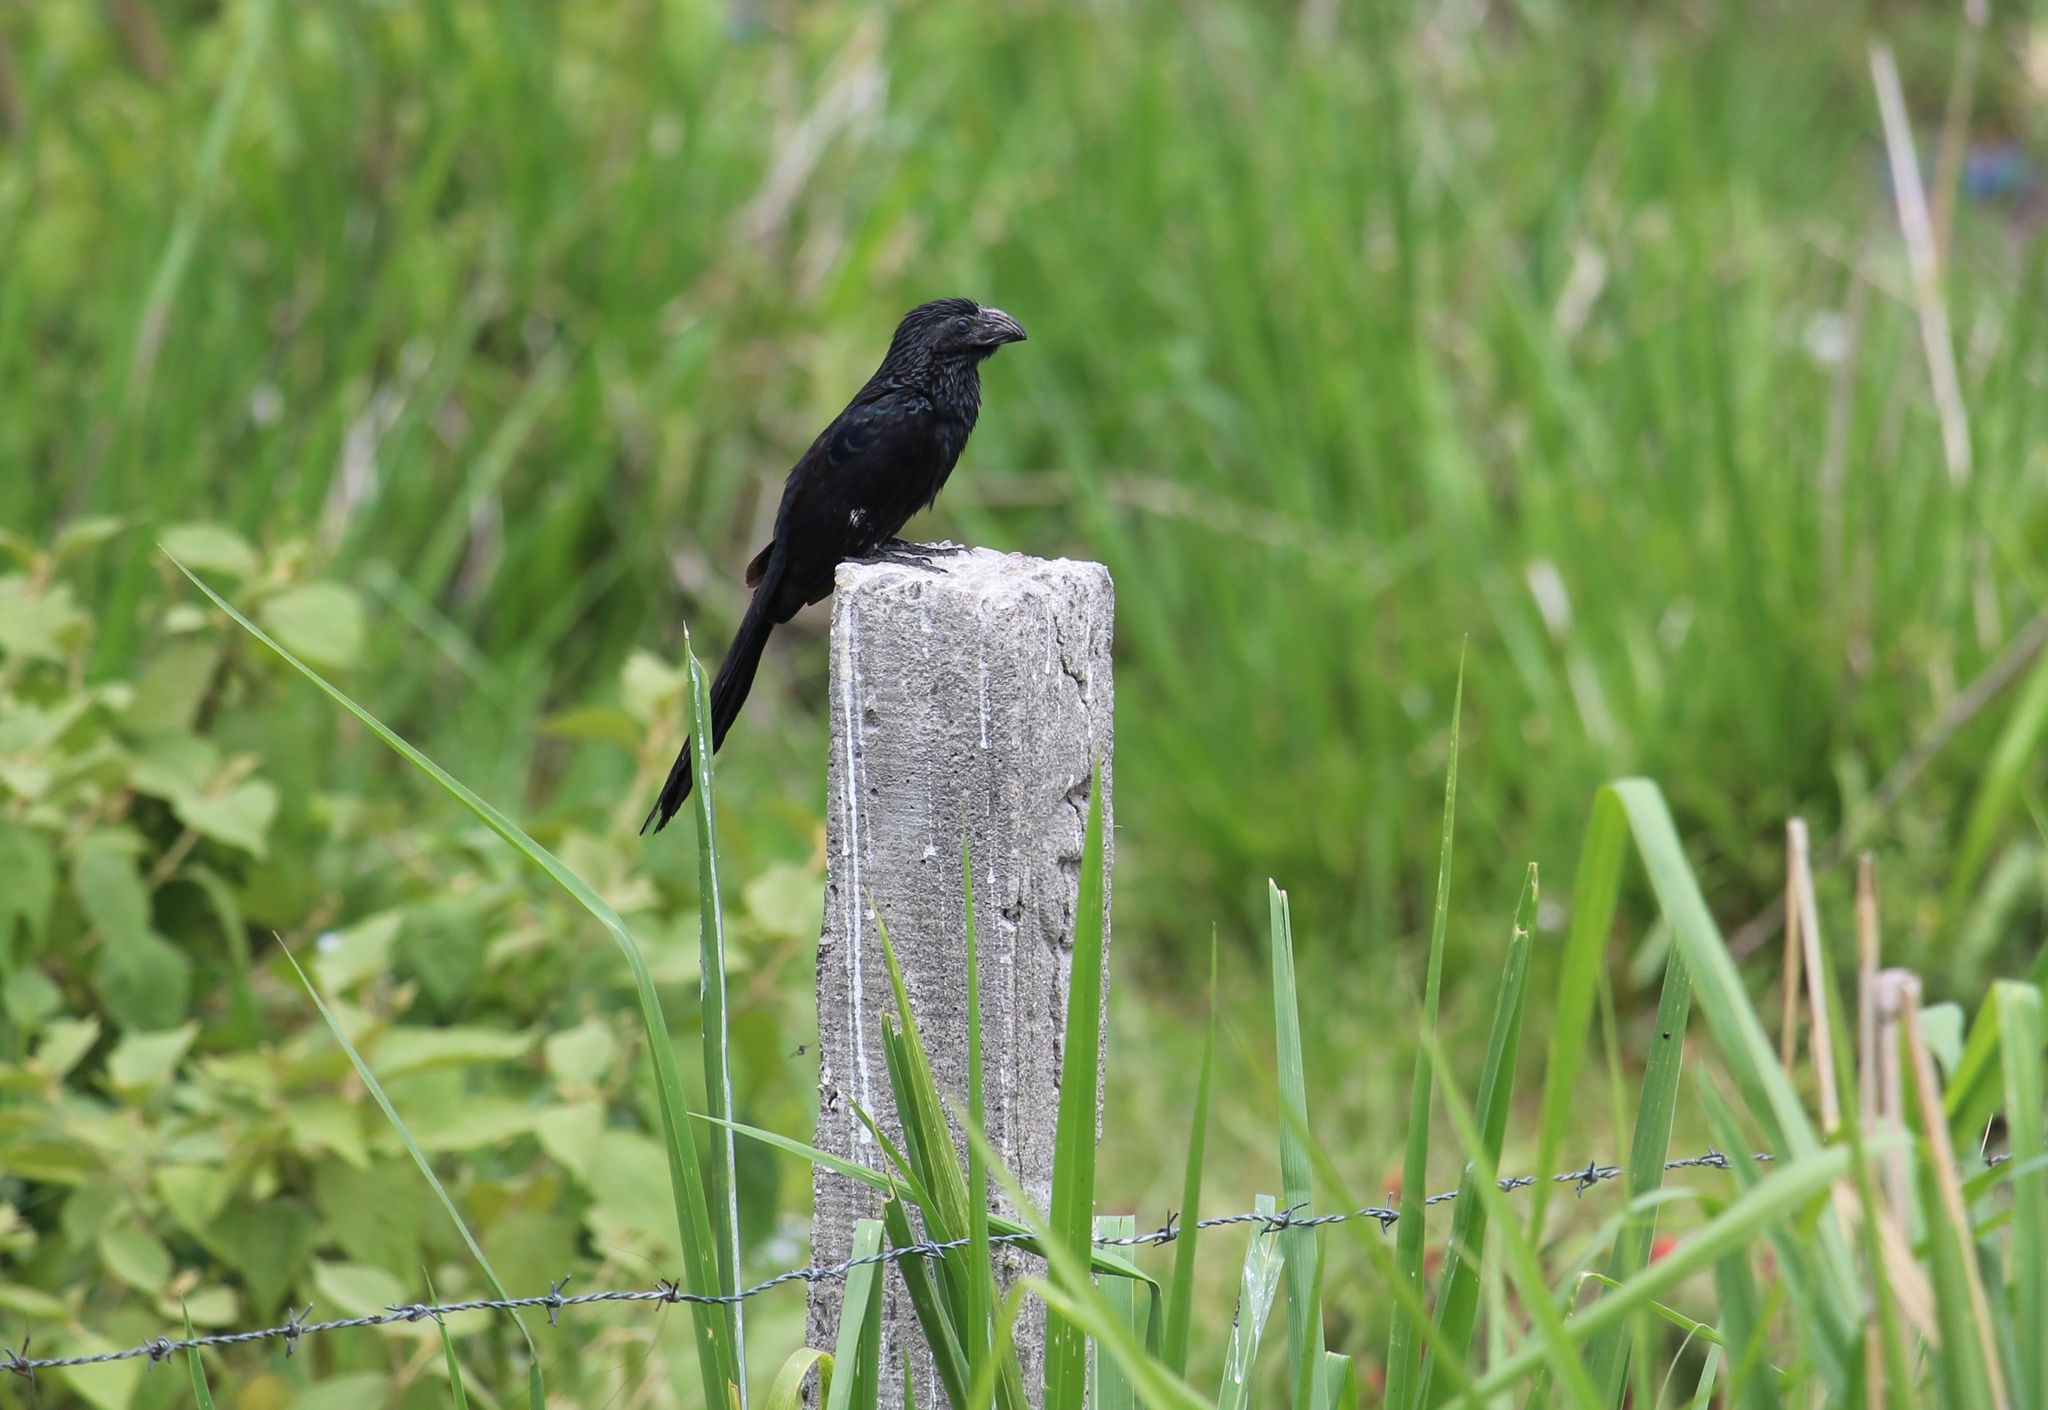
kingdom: Animalia
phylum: Chordata
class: Aves
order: Cuculiformes
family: Cuculidae
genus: Crotophaga
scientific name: Crotophaga sulcirostris
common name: Groove-billed ani
